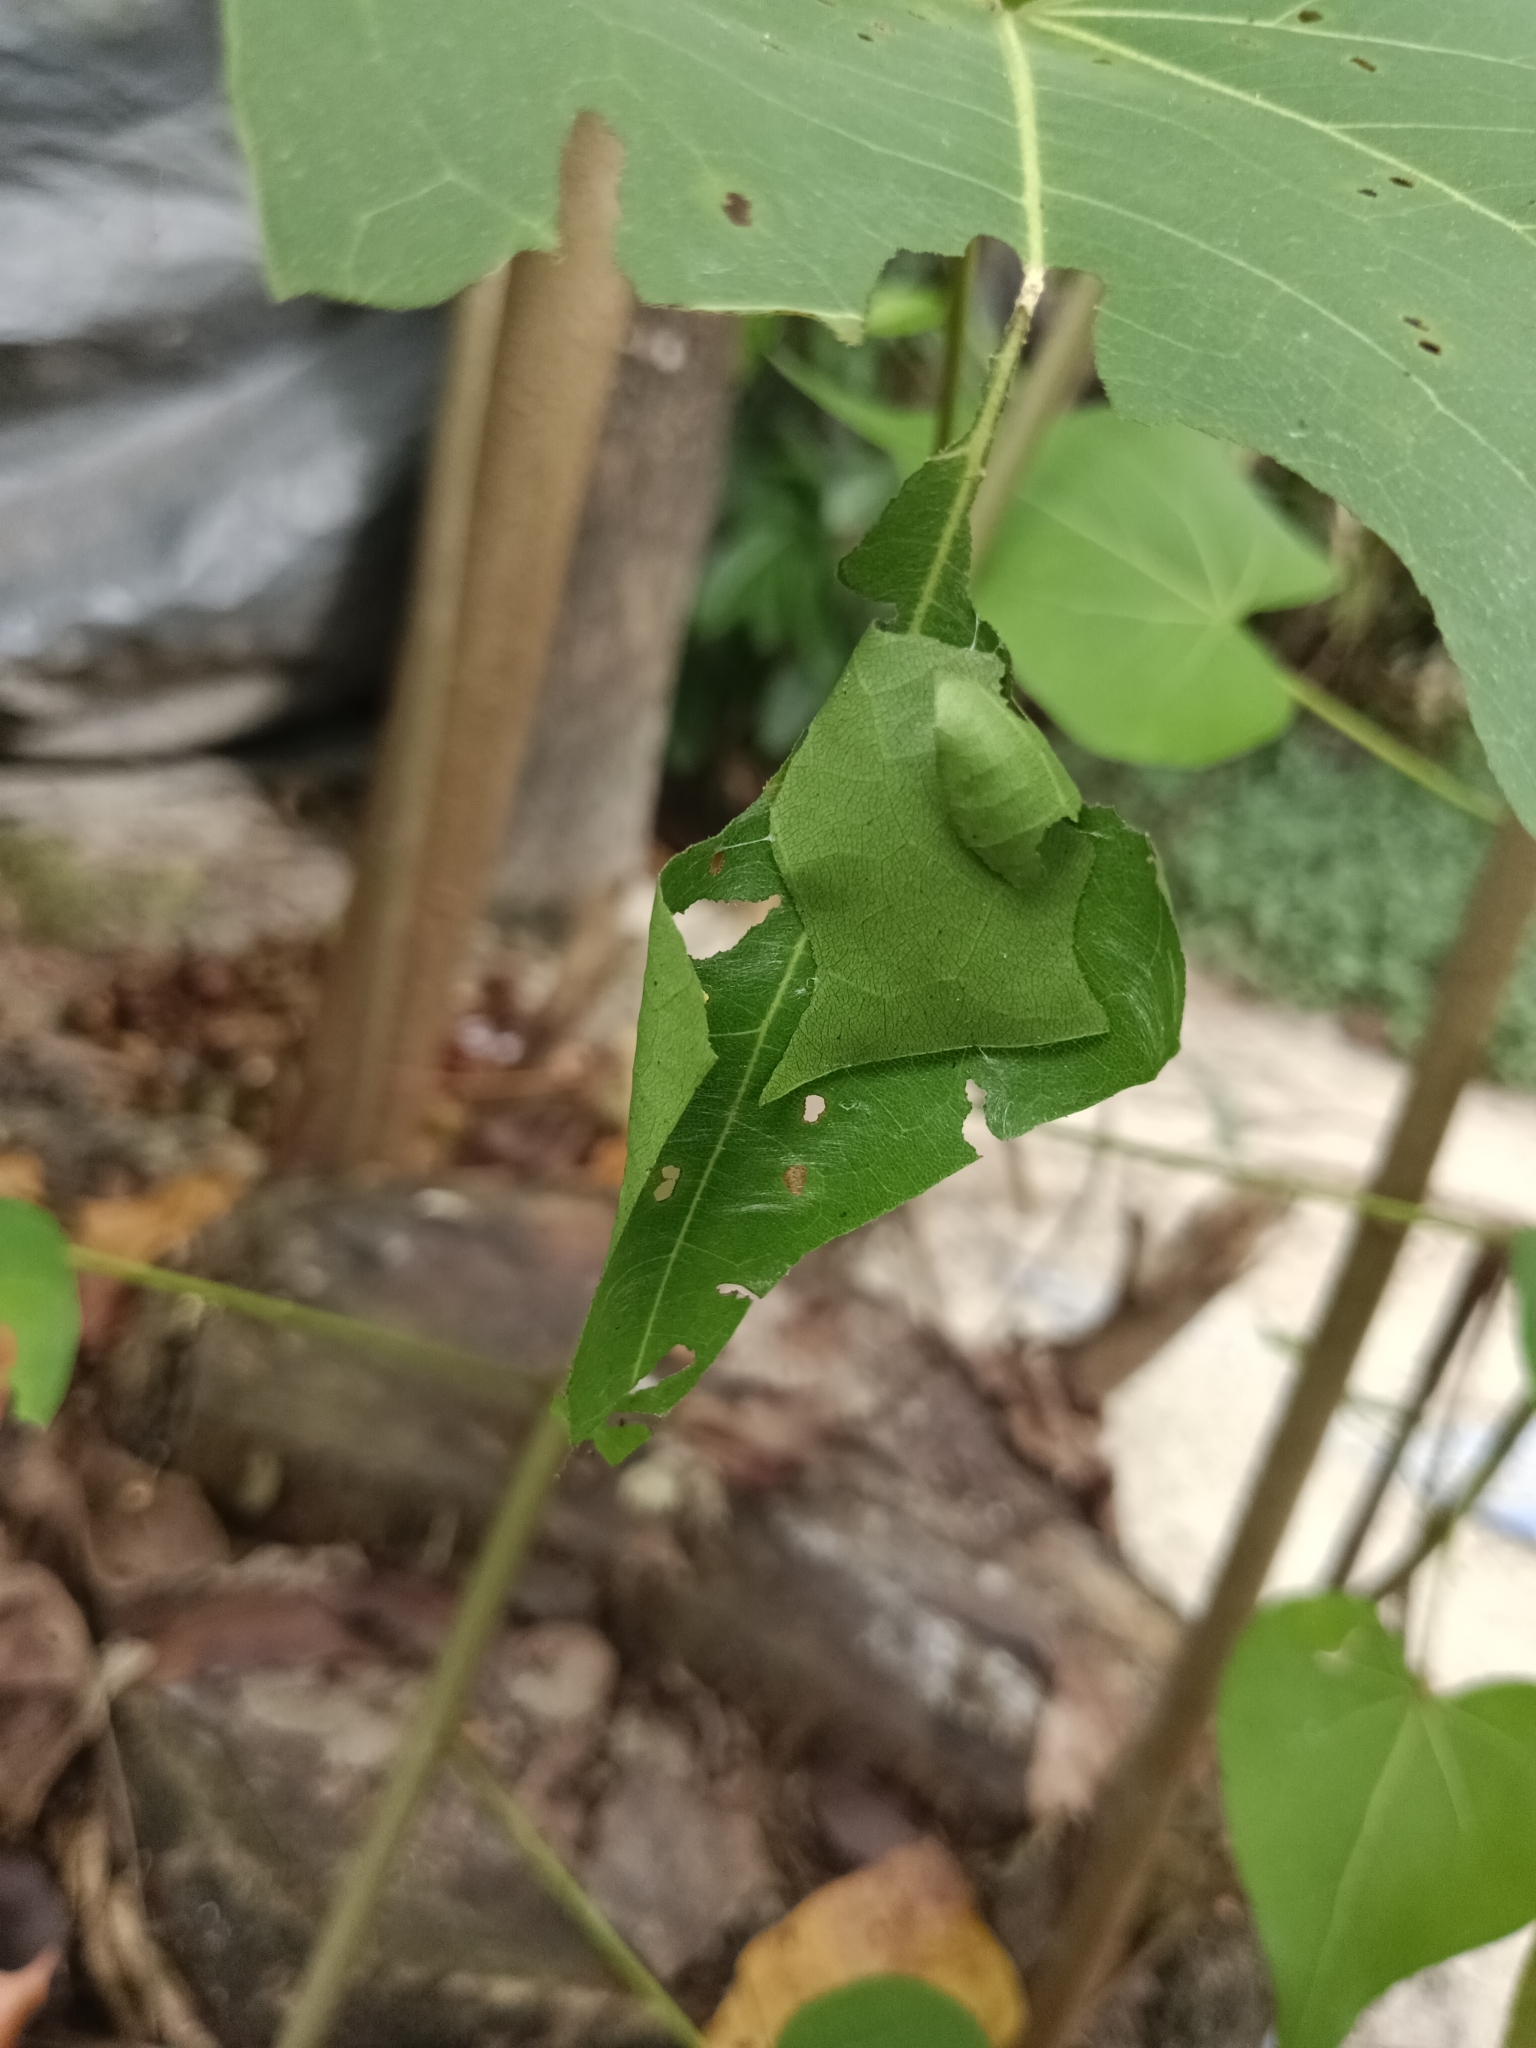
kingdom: Animalia
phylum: Arthropoda
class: Insecta
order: Lepidoptera
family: Hesperiidae
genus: Coladenia
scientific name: Coladenia
